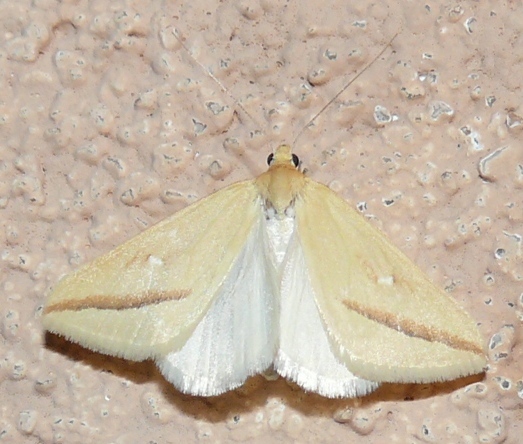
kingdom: Animalia
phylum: Arthropoda
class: Insecta
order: Lepidoptera
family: Geometridae
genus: Rhodometra
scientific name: Rhodometra participata
